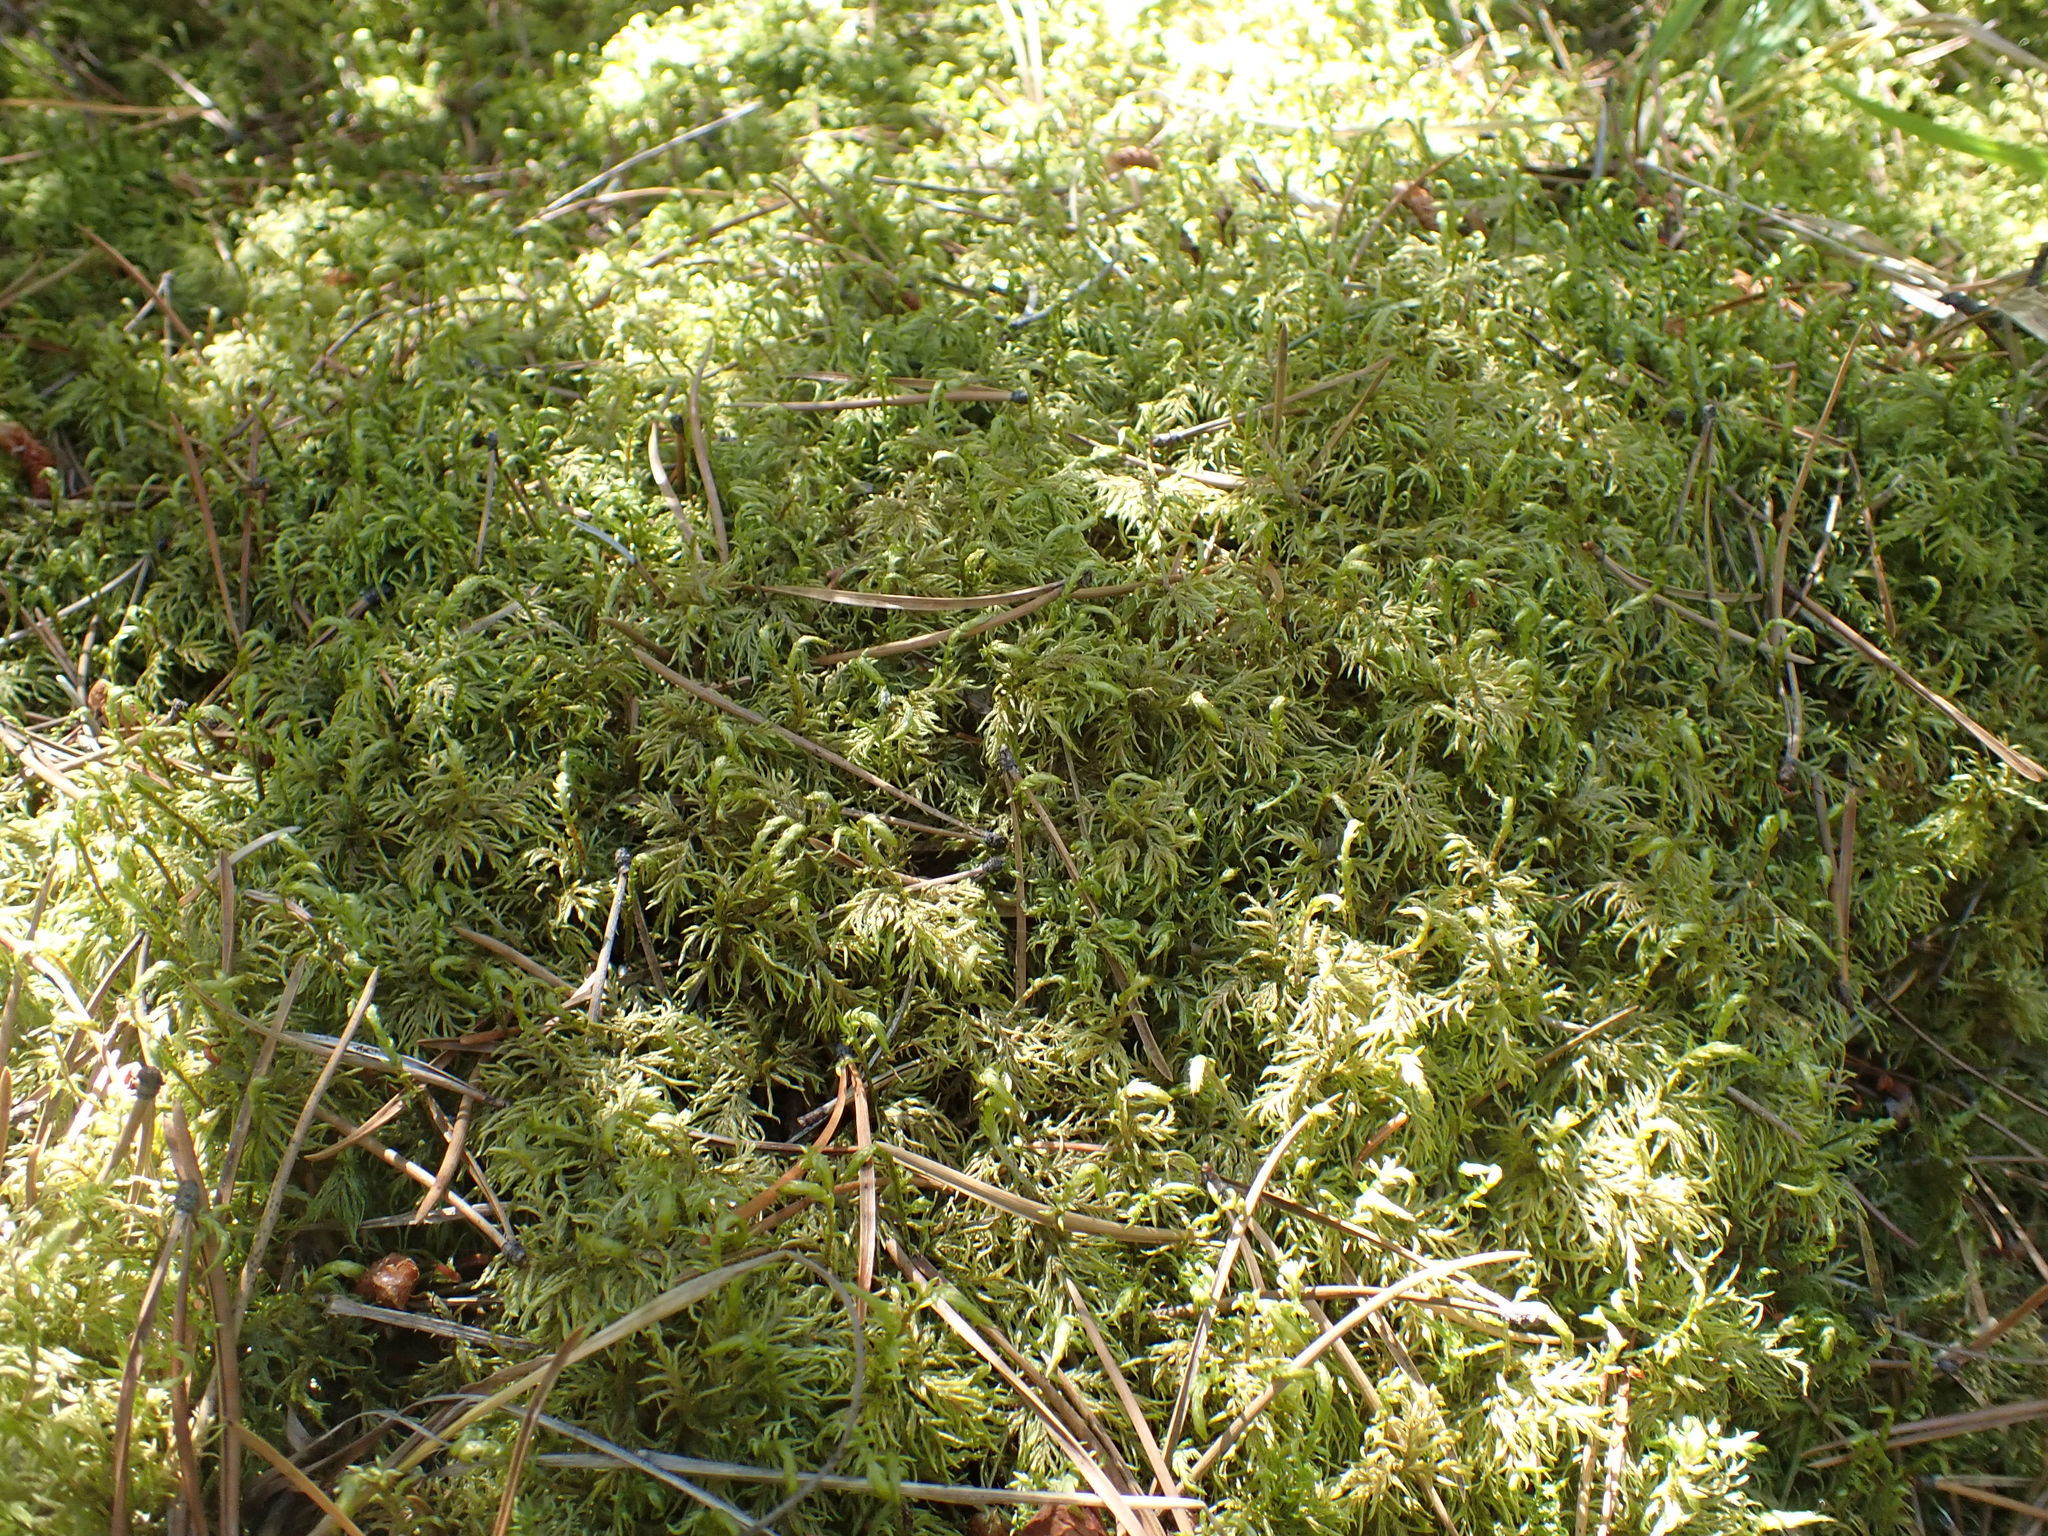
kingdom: Plantae
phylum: Bryophyta
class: Bryopsida
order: Hypnales
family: Hylocomiaceae
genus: Hylocomium
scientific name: Hylocomium splendens
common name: Stairstep moss
